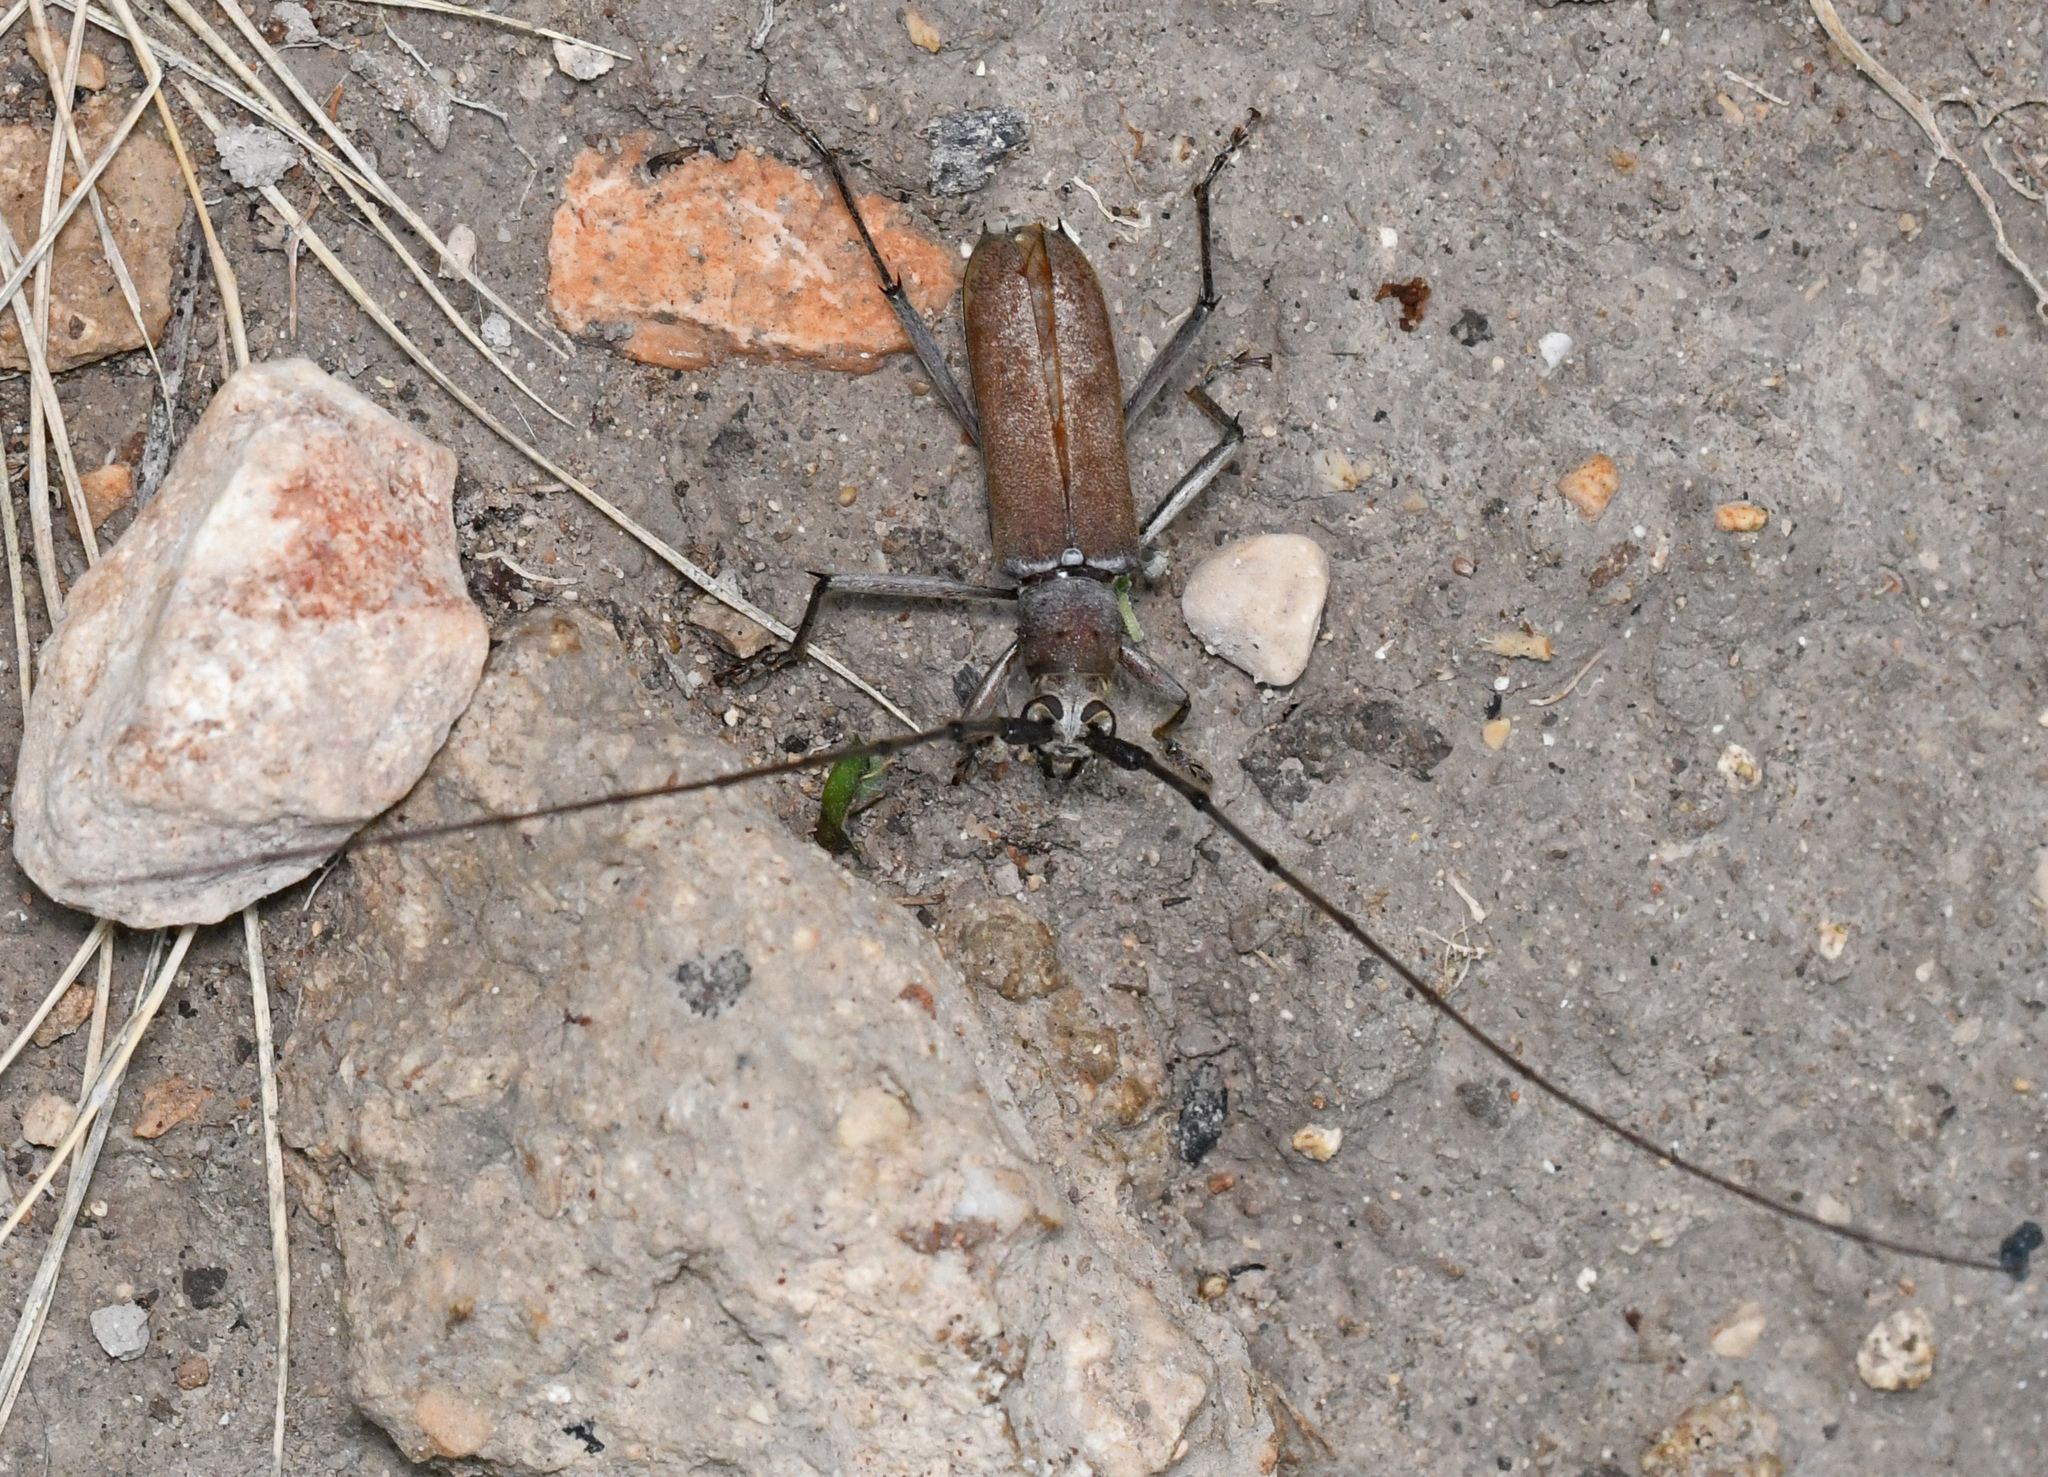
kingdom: Animalia
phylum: Arthropoda
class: Insecta
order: Coleoptera
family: Cerambycidae
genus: Eburia
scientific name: Eburia fisheri
